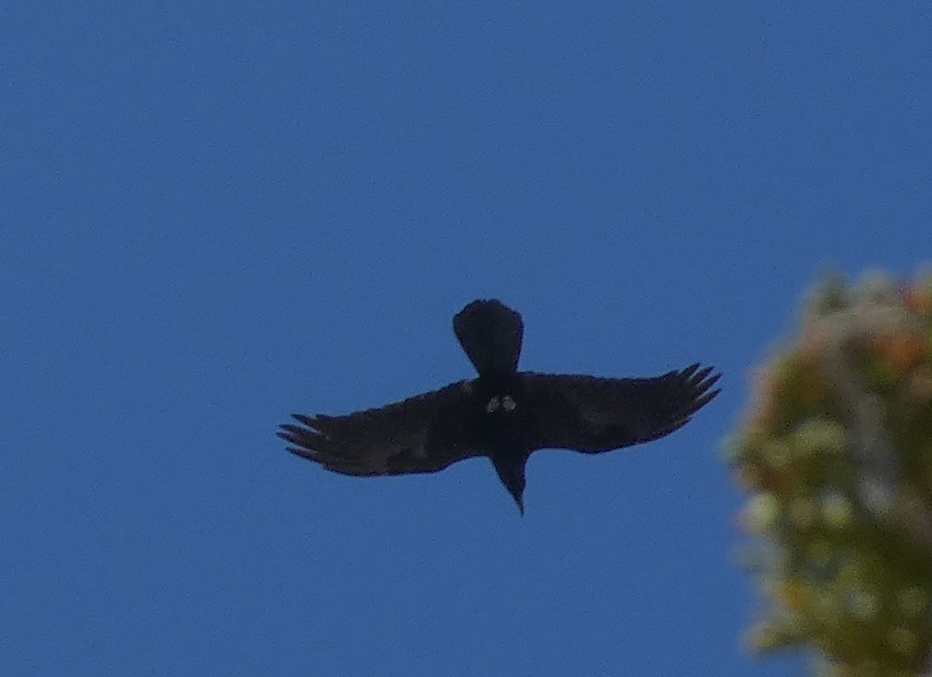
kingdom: Animalia
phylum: Chordata
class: Aves
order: Passeriformes
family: Corvidae
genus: Corvus
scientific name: Corvus corax
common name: Common raven
